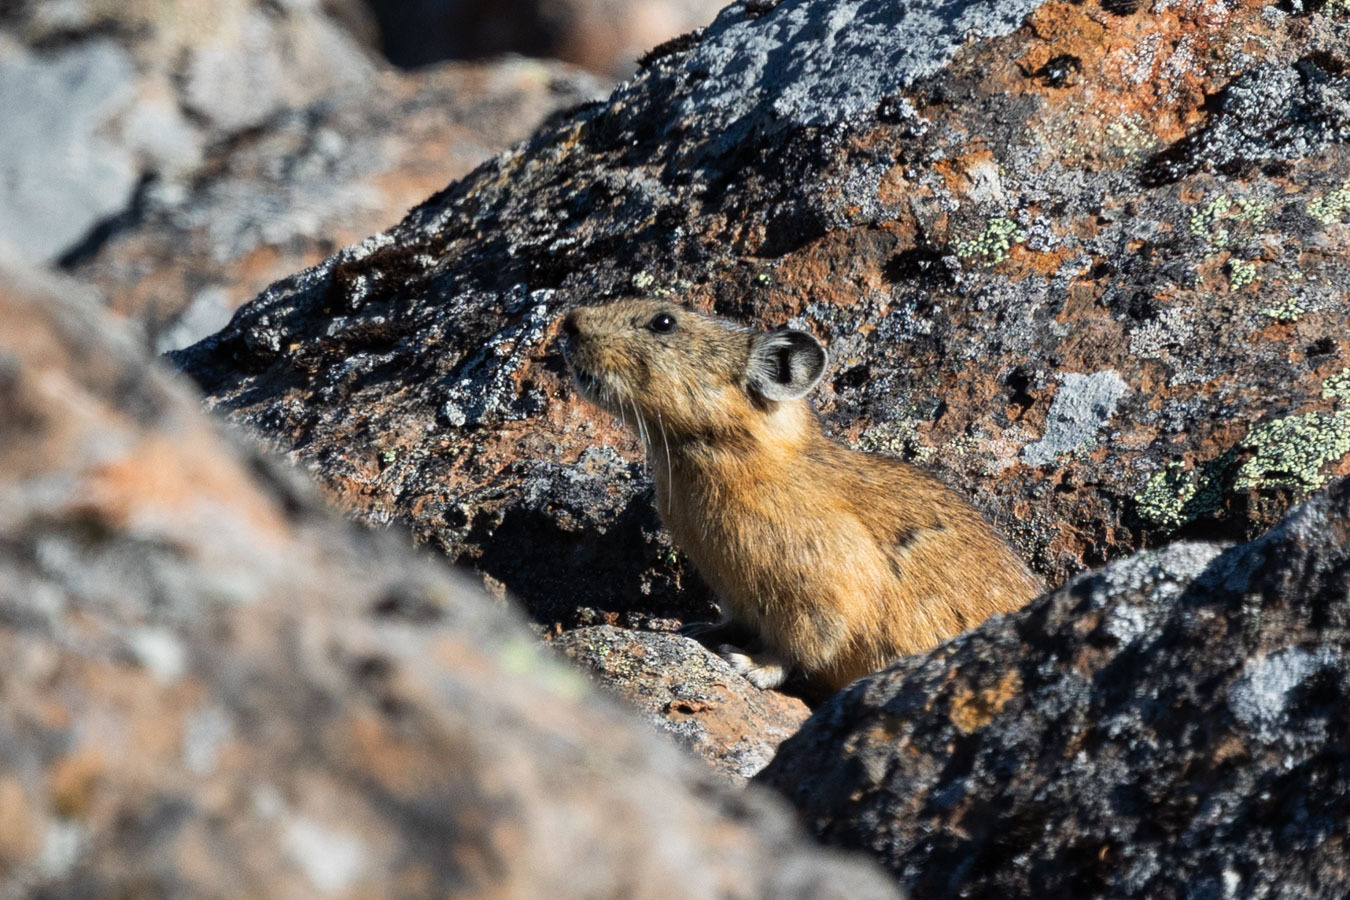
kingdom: Animalia
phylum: Chordata
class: Mammalia
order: Lagomorpha
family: Ochotonidae
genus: Ochotona
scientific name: Ochotona hyperborea
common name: Northern pika
